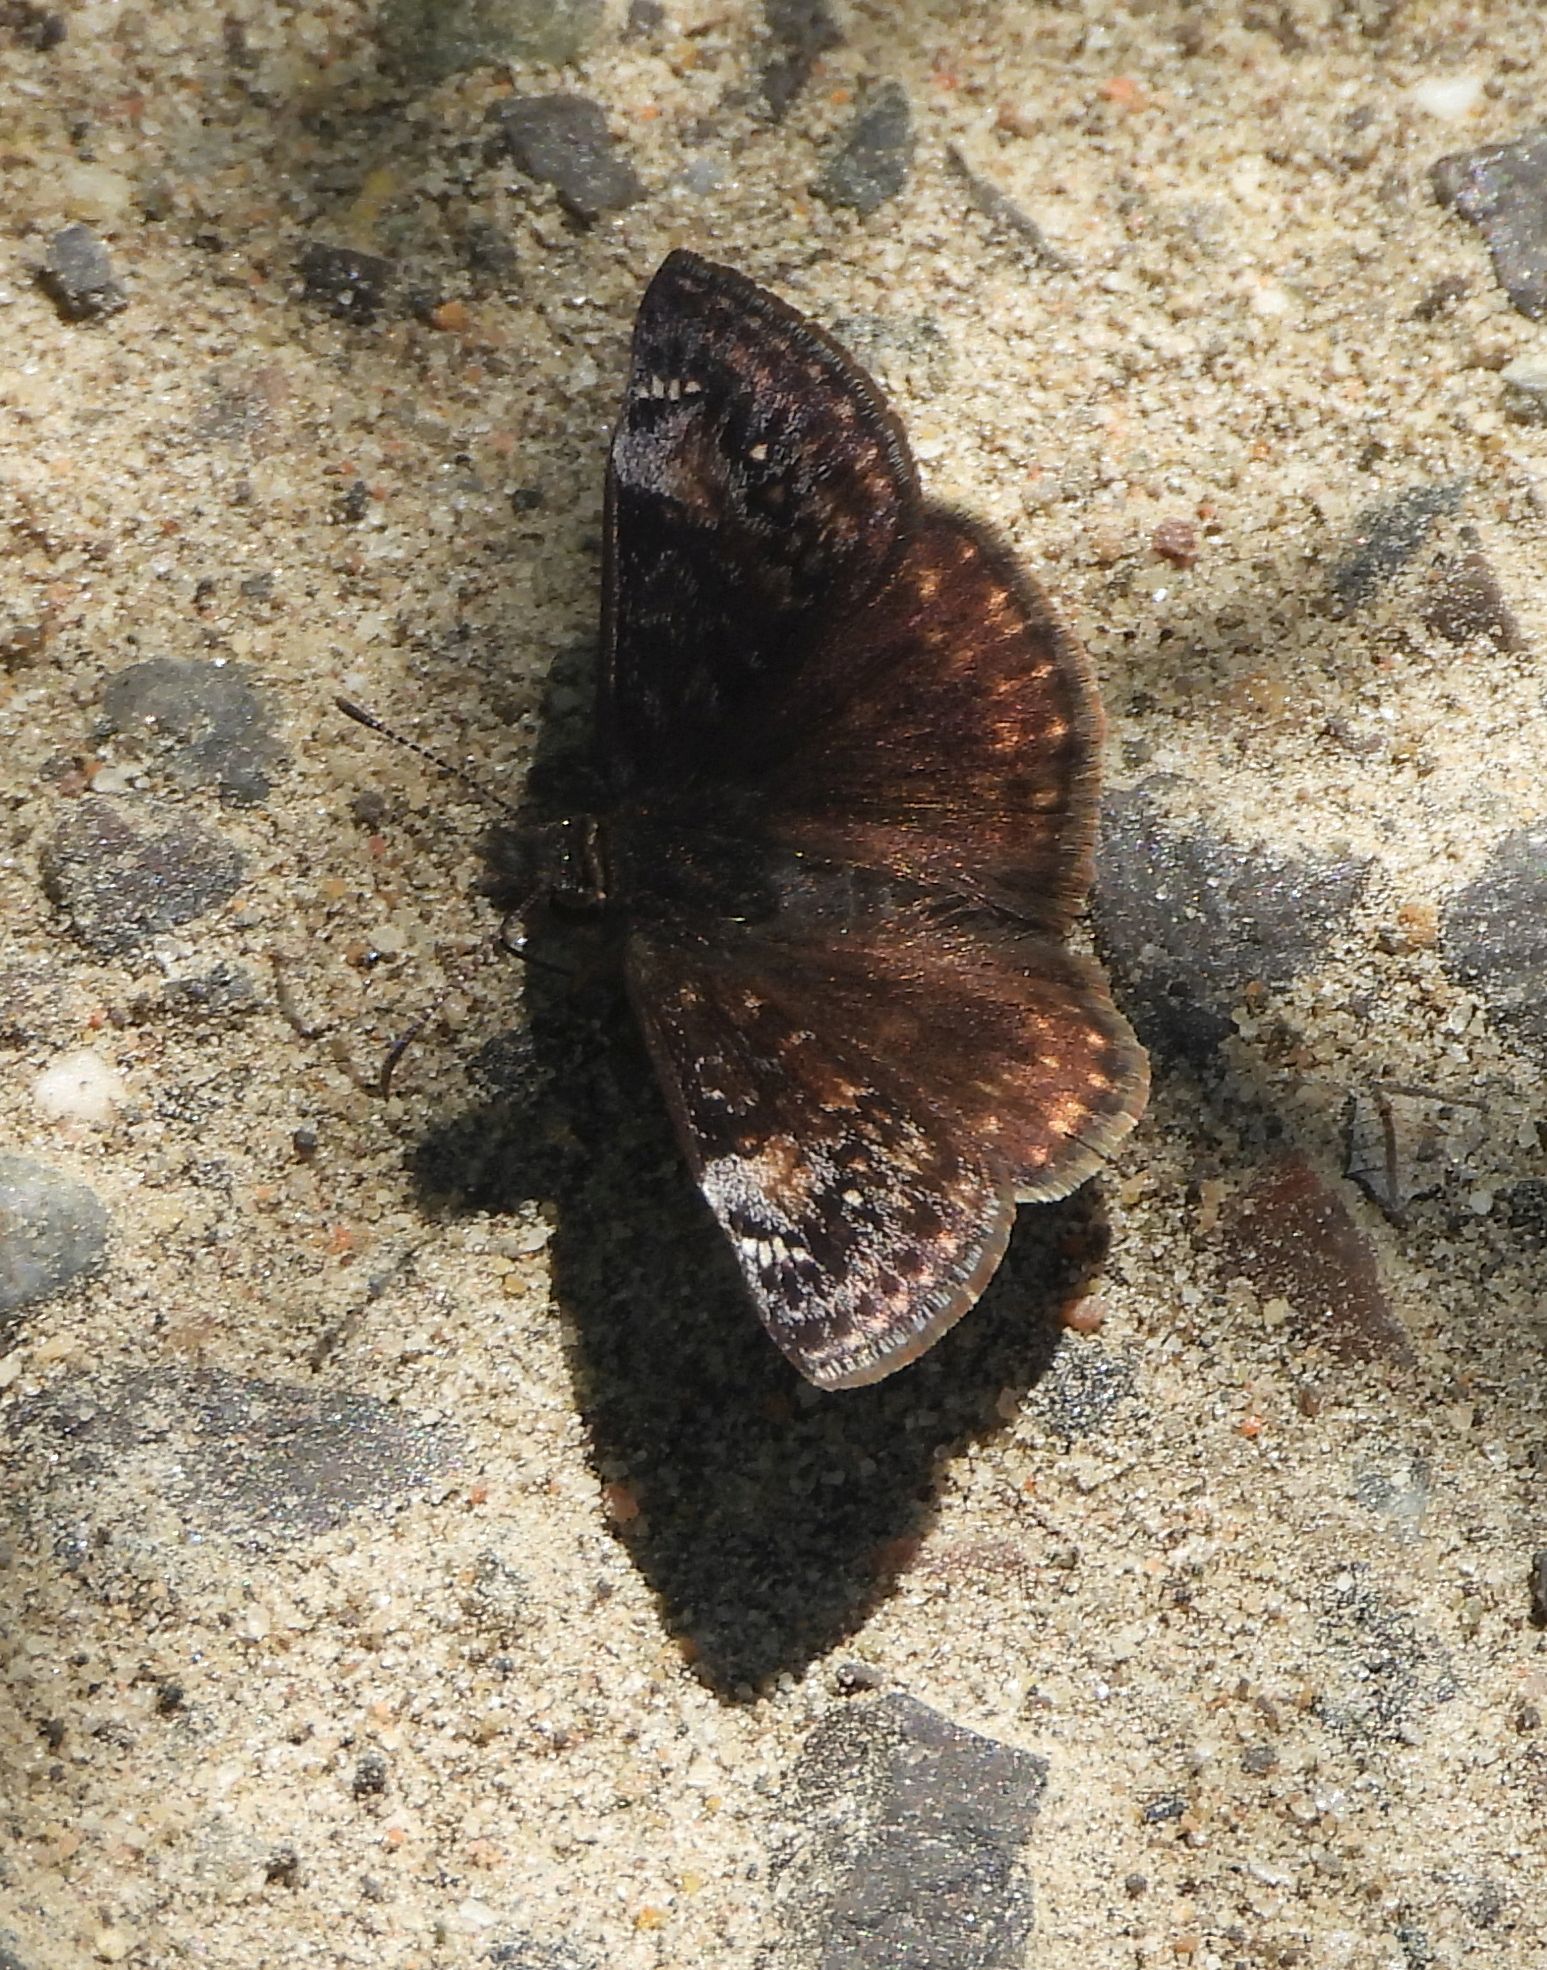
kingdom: Animalia
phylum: Arthropoda
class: Insecta
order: Lepidoptera
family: Hesperiidae
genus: Erynnis
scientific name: Erynnis lucilius
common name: Columbine duskywing
